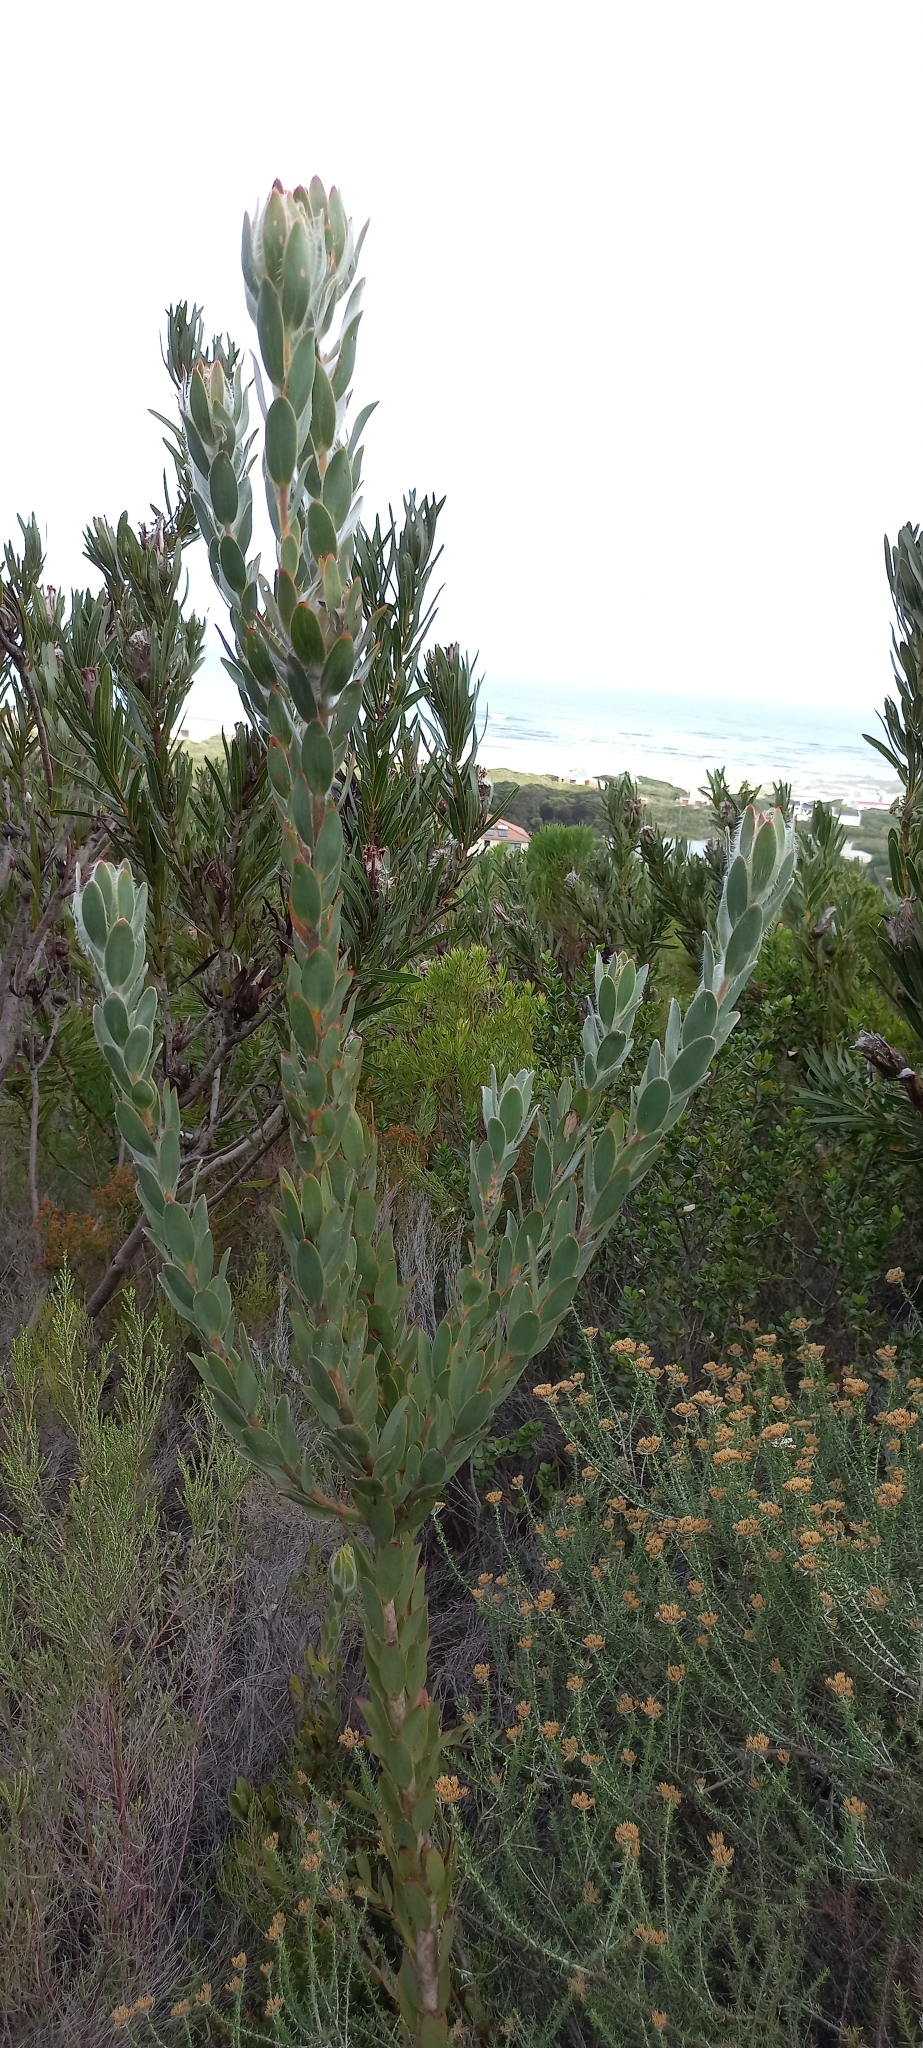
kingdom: Plantae
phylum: Tracheophyta
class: Magnoliopsida
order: Proteales
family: Proteaceae
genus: Leucadendron
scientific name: Leucadendron nervosum
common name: Silky-ruff conebush
